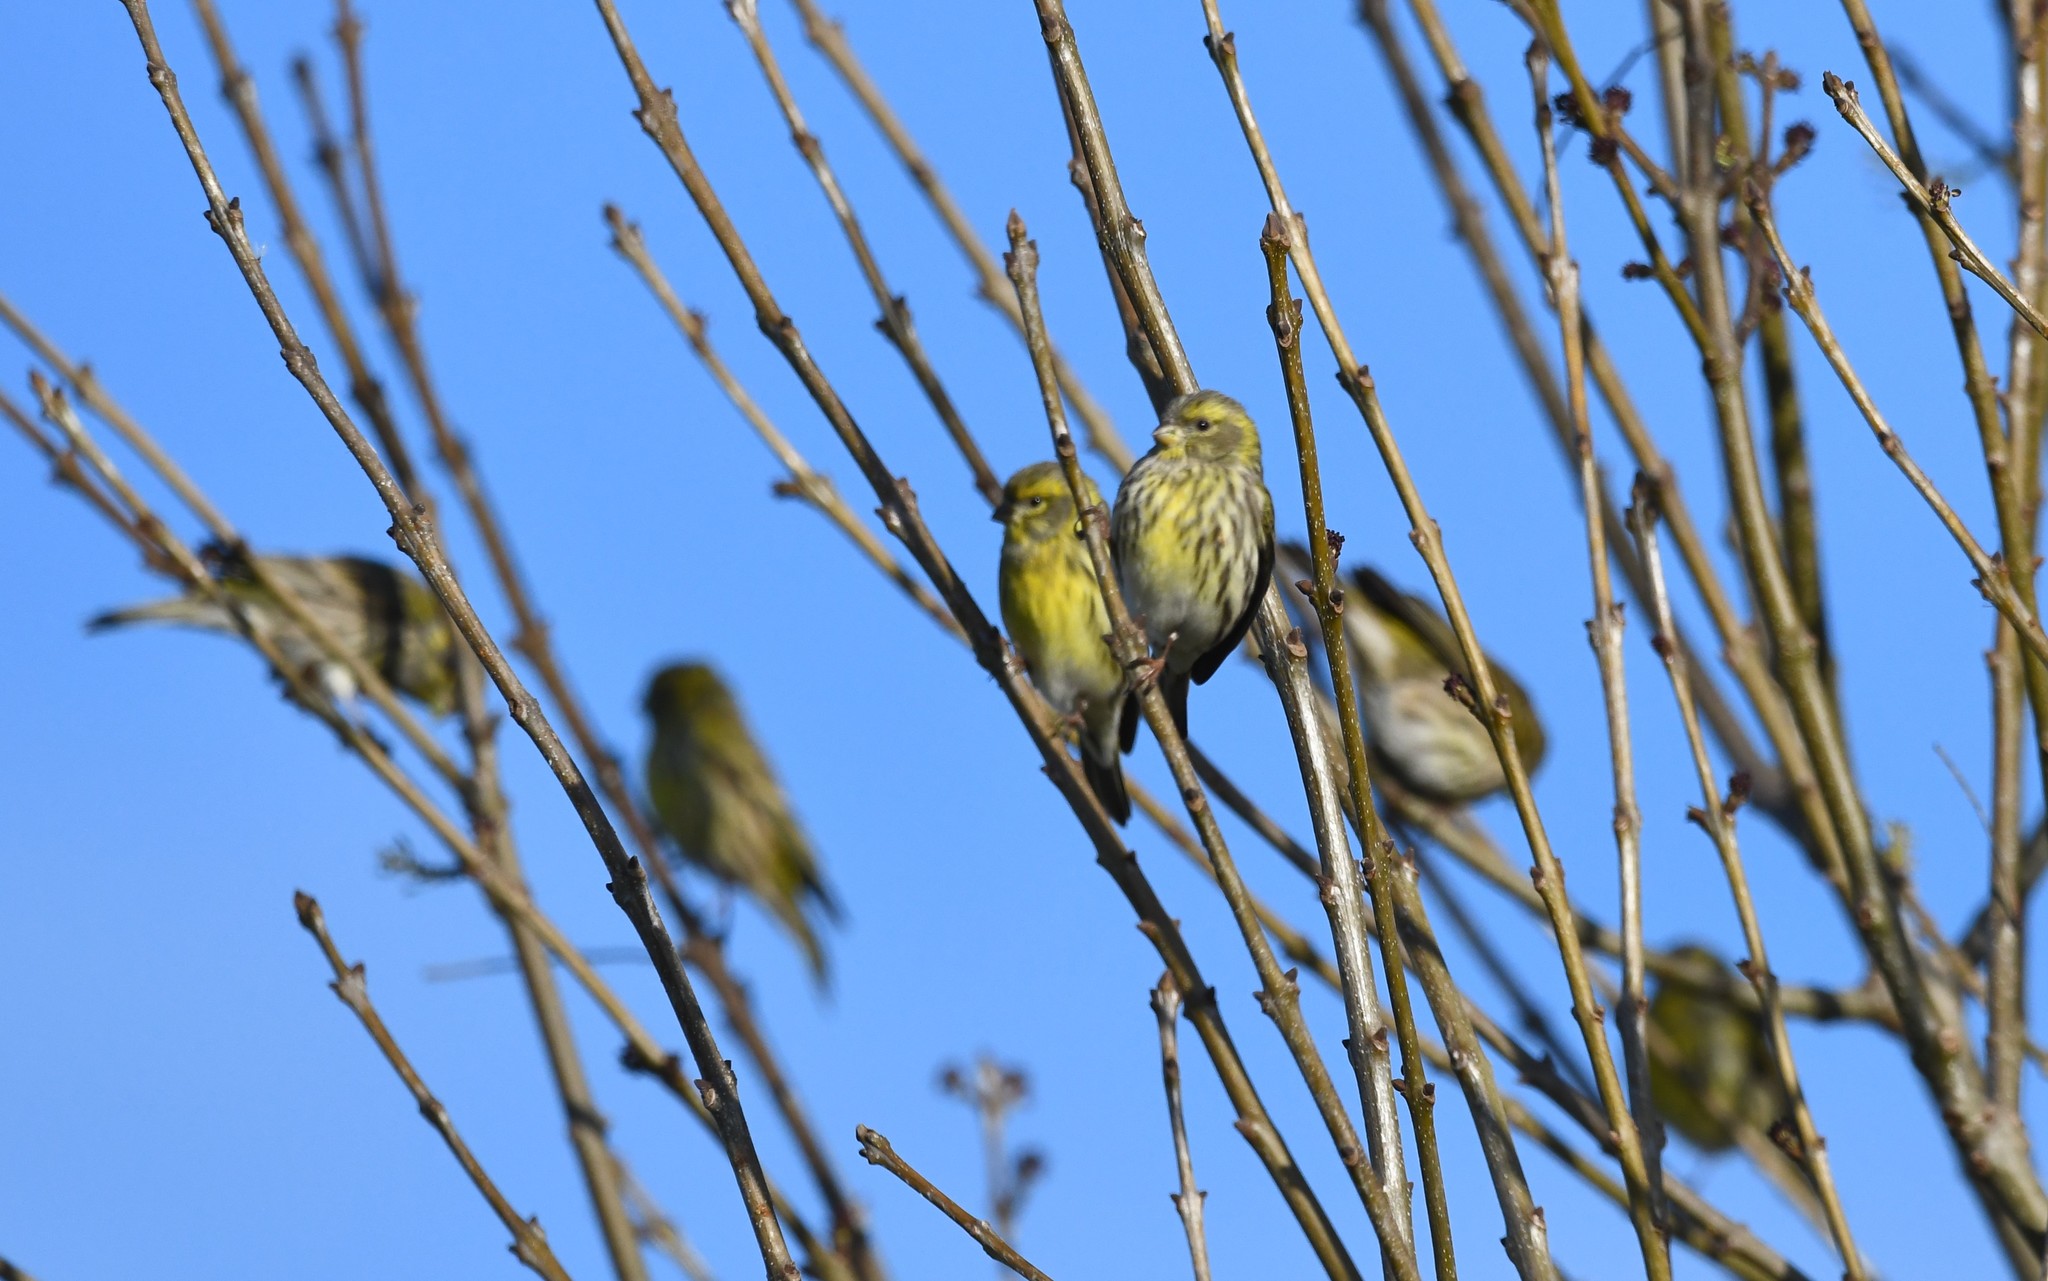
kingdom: Animalia
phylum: Chordata
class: Aves
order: Passeriformes
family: Fringillidae
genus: Serinus
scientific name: Serinus serinus
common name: European serin
